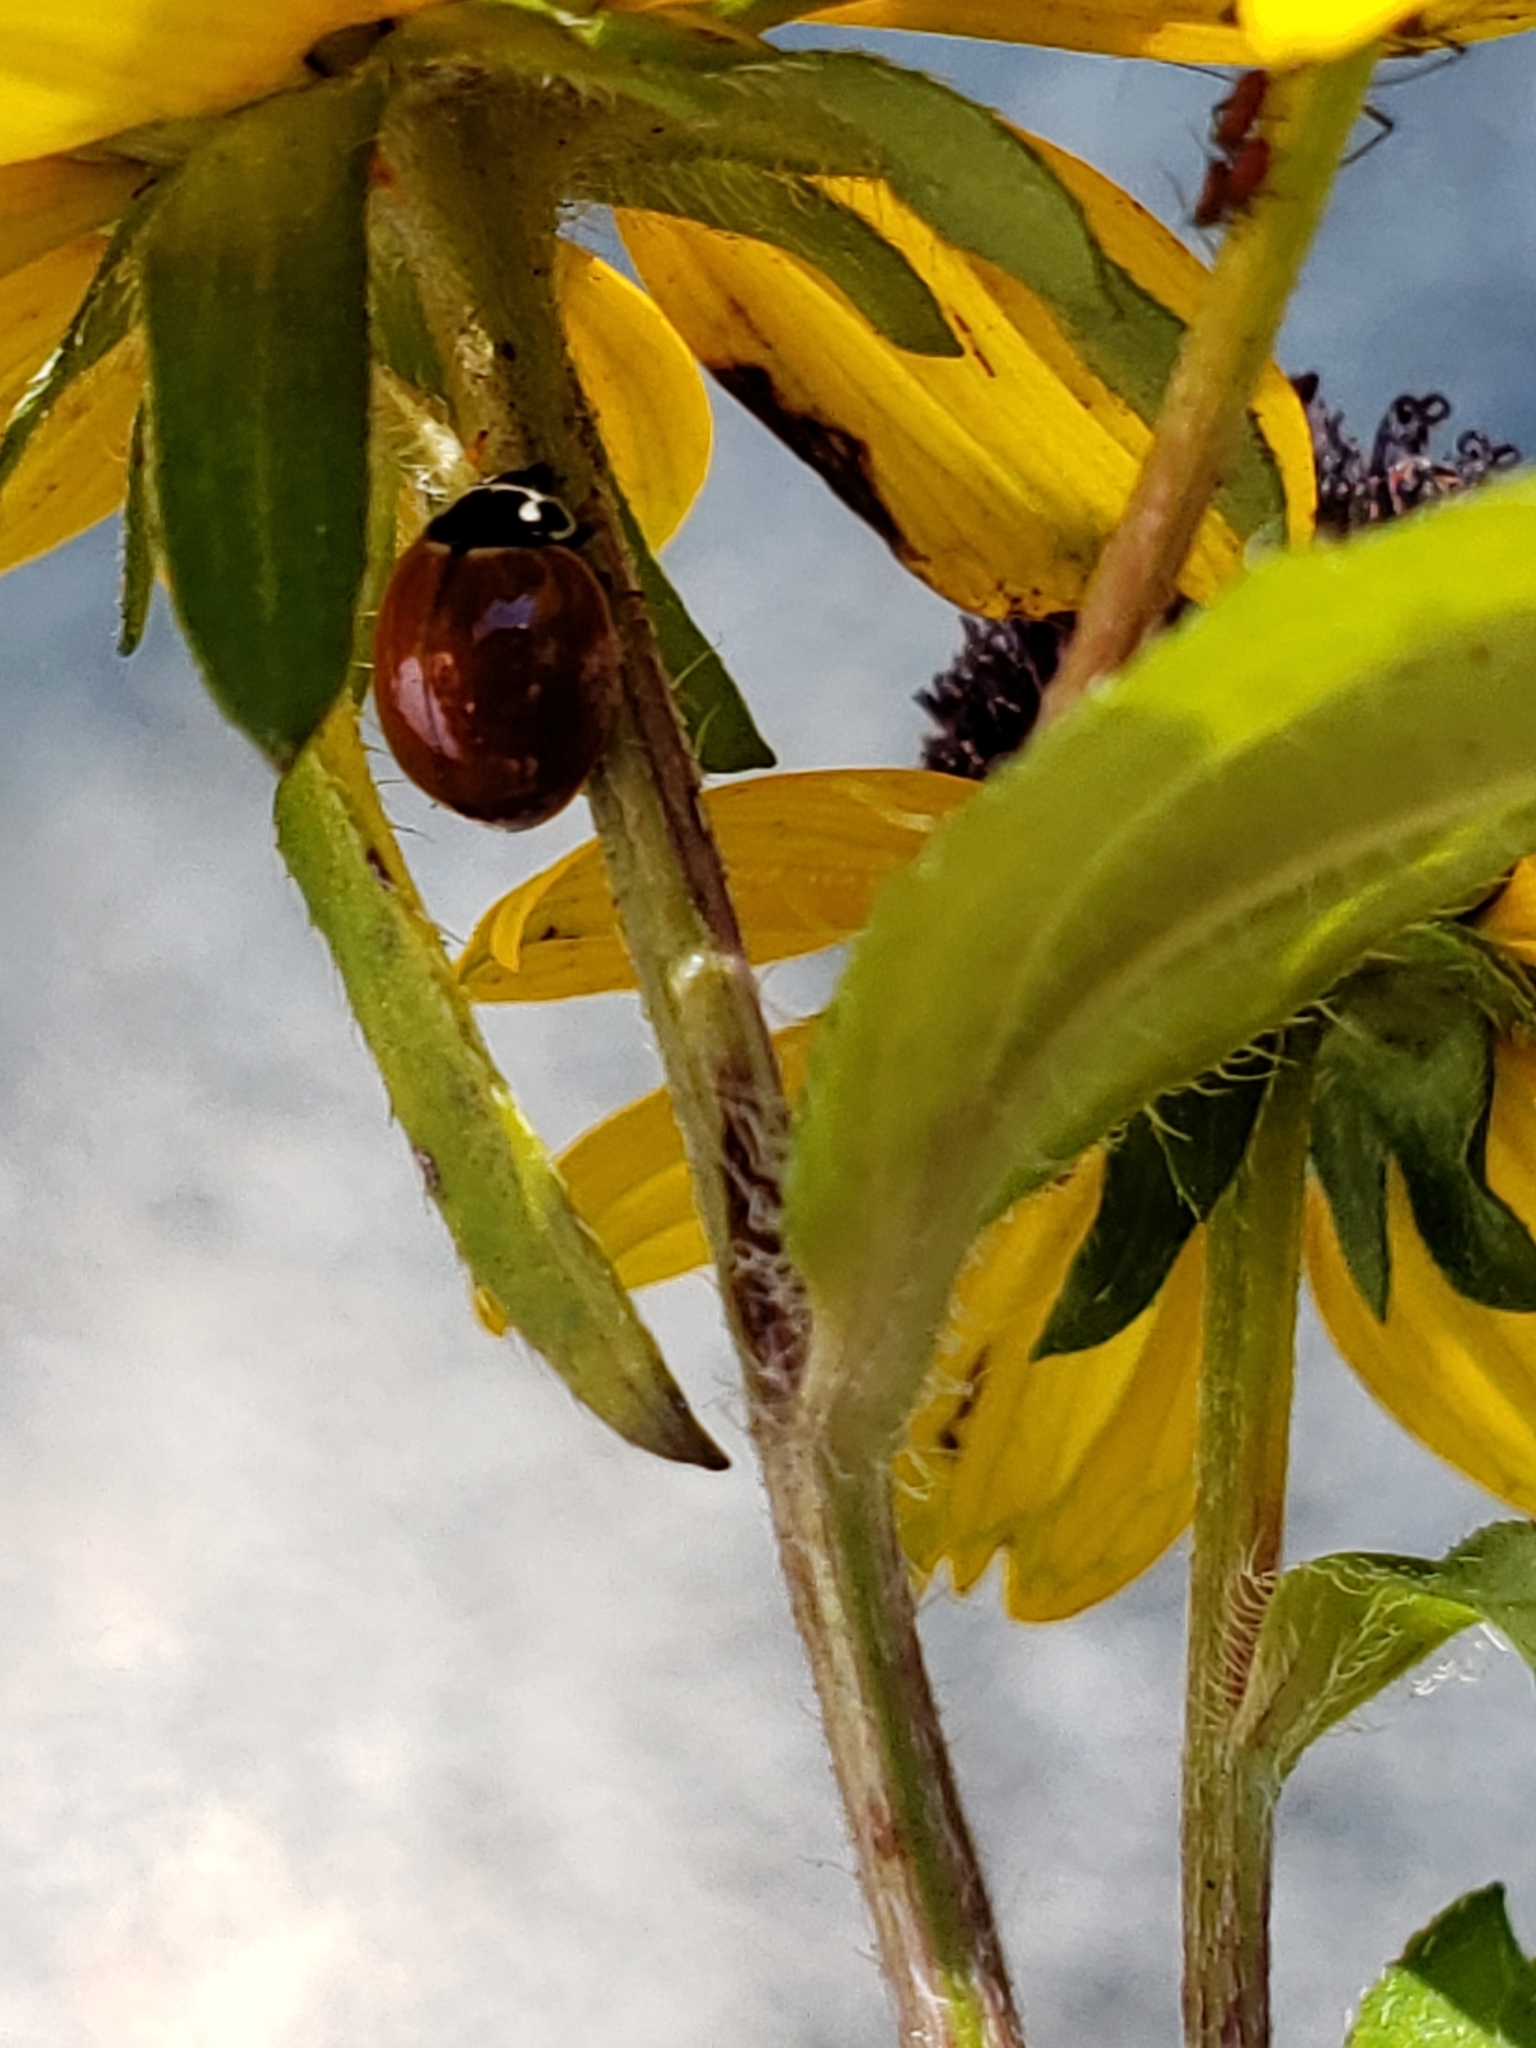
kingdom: Animalia
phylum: Arthropoda
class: Insecta
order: Coleoptera
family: Coccinellidae
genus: Cycloneda
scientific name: Cycloneda munda
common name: Polished lady beetle
